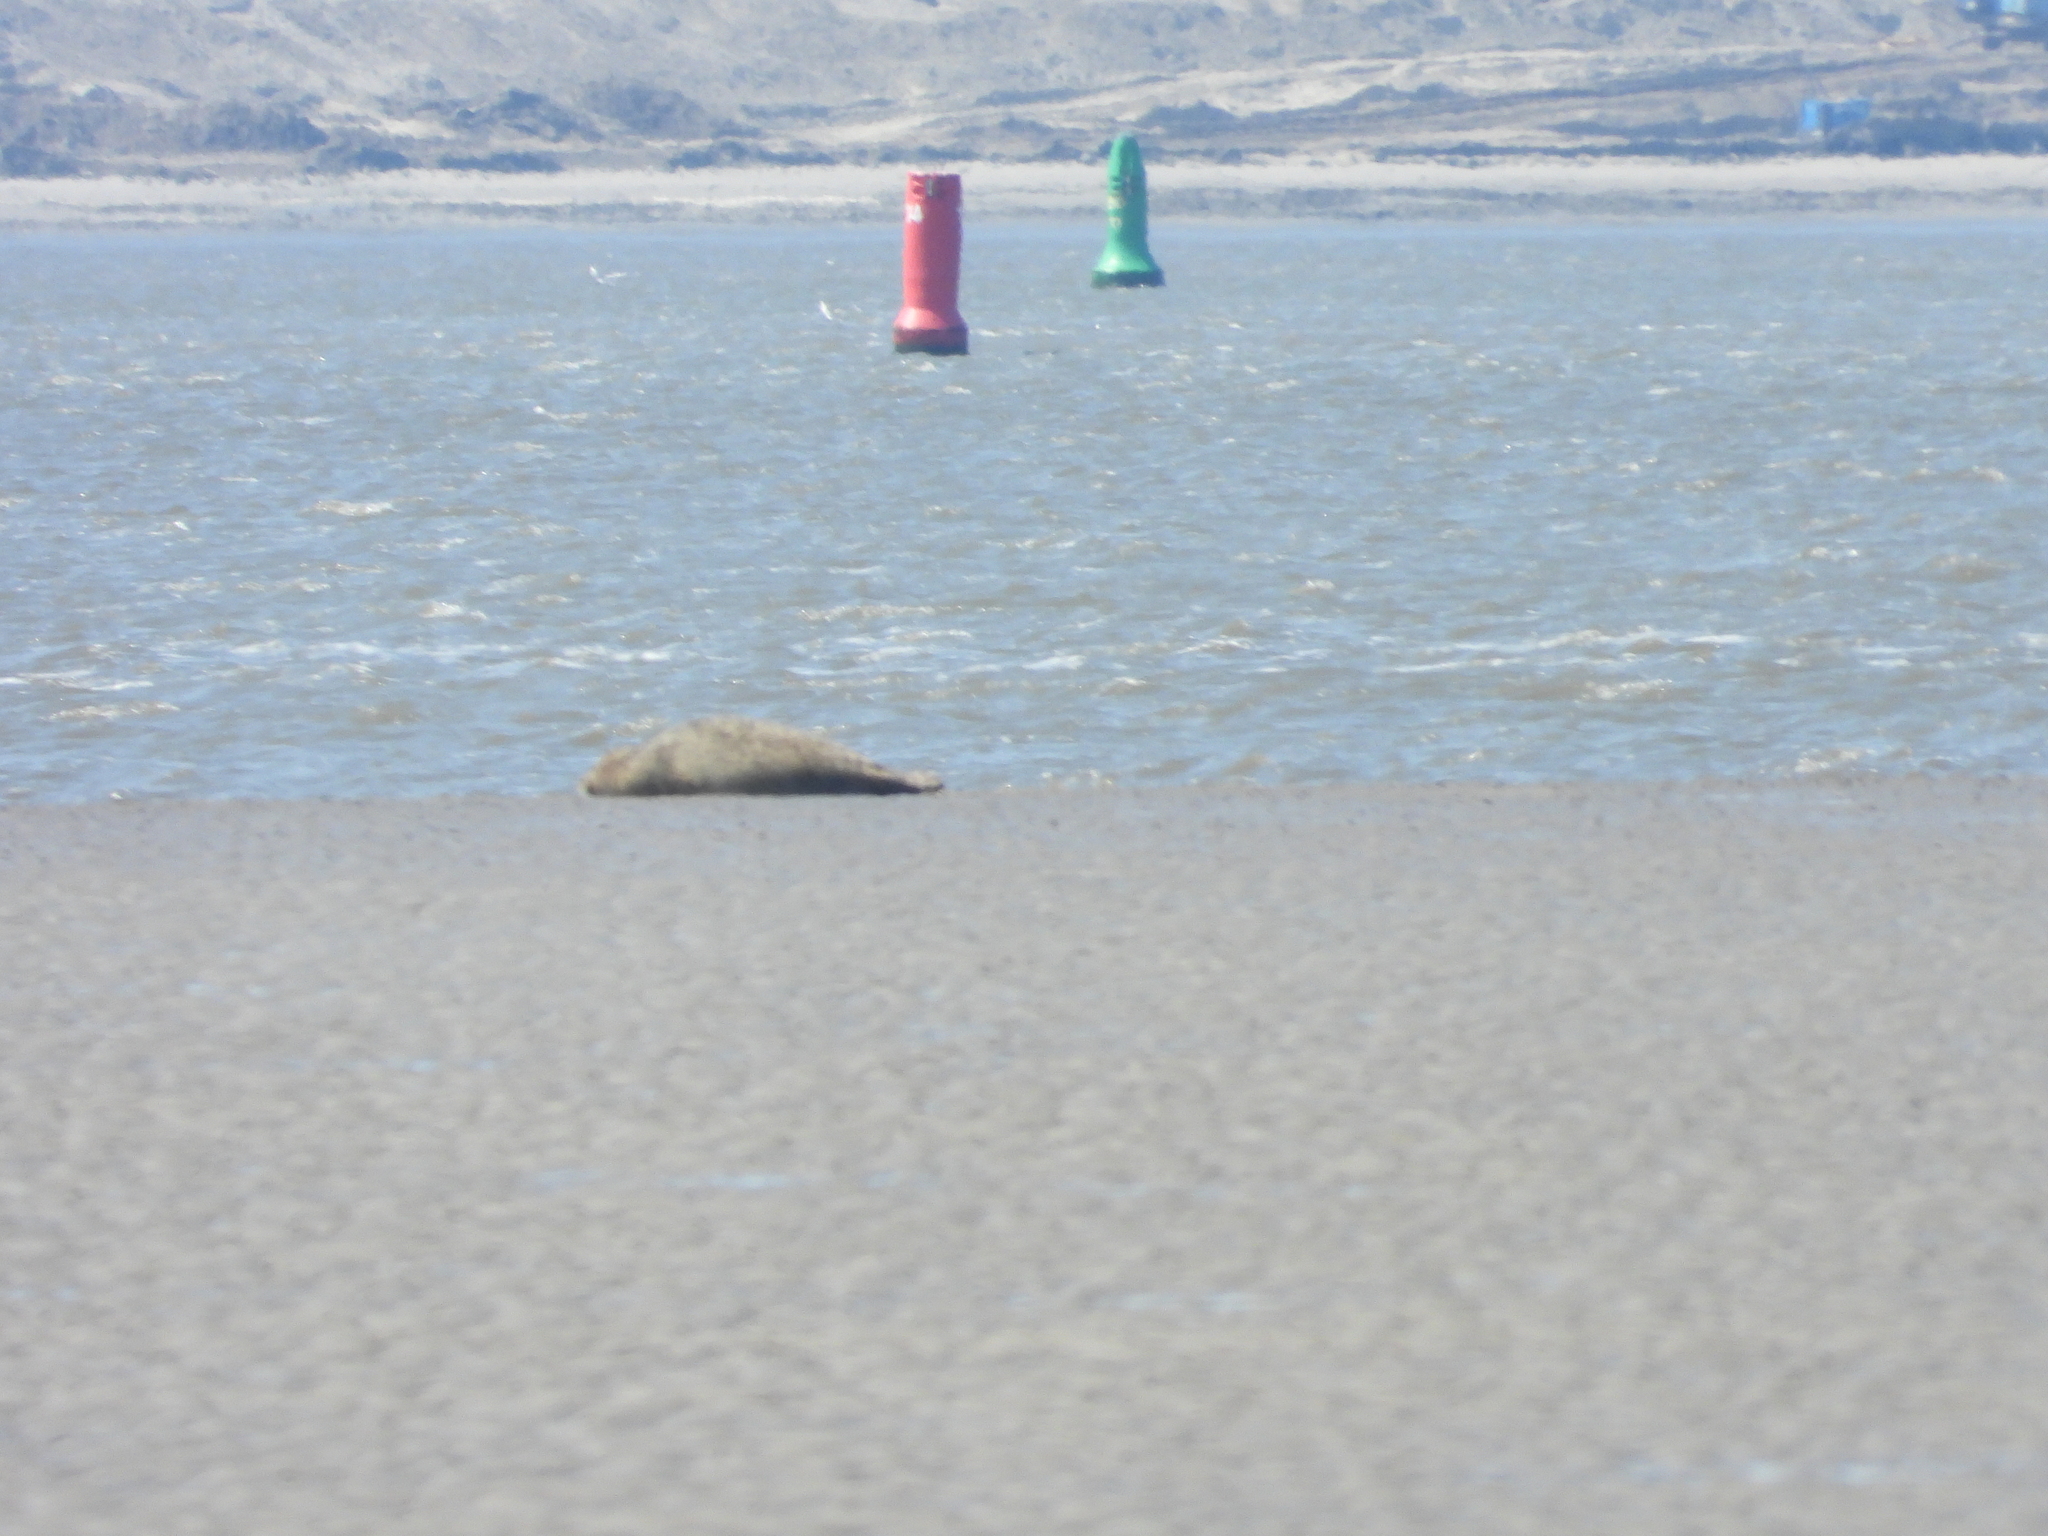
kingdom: Animalia
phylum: Chordata
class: Mammalia
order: Carnivora
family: Phocidae
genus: Phoca
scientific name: Phoca vitulina
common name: Harbor seal
